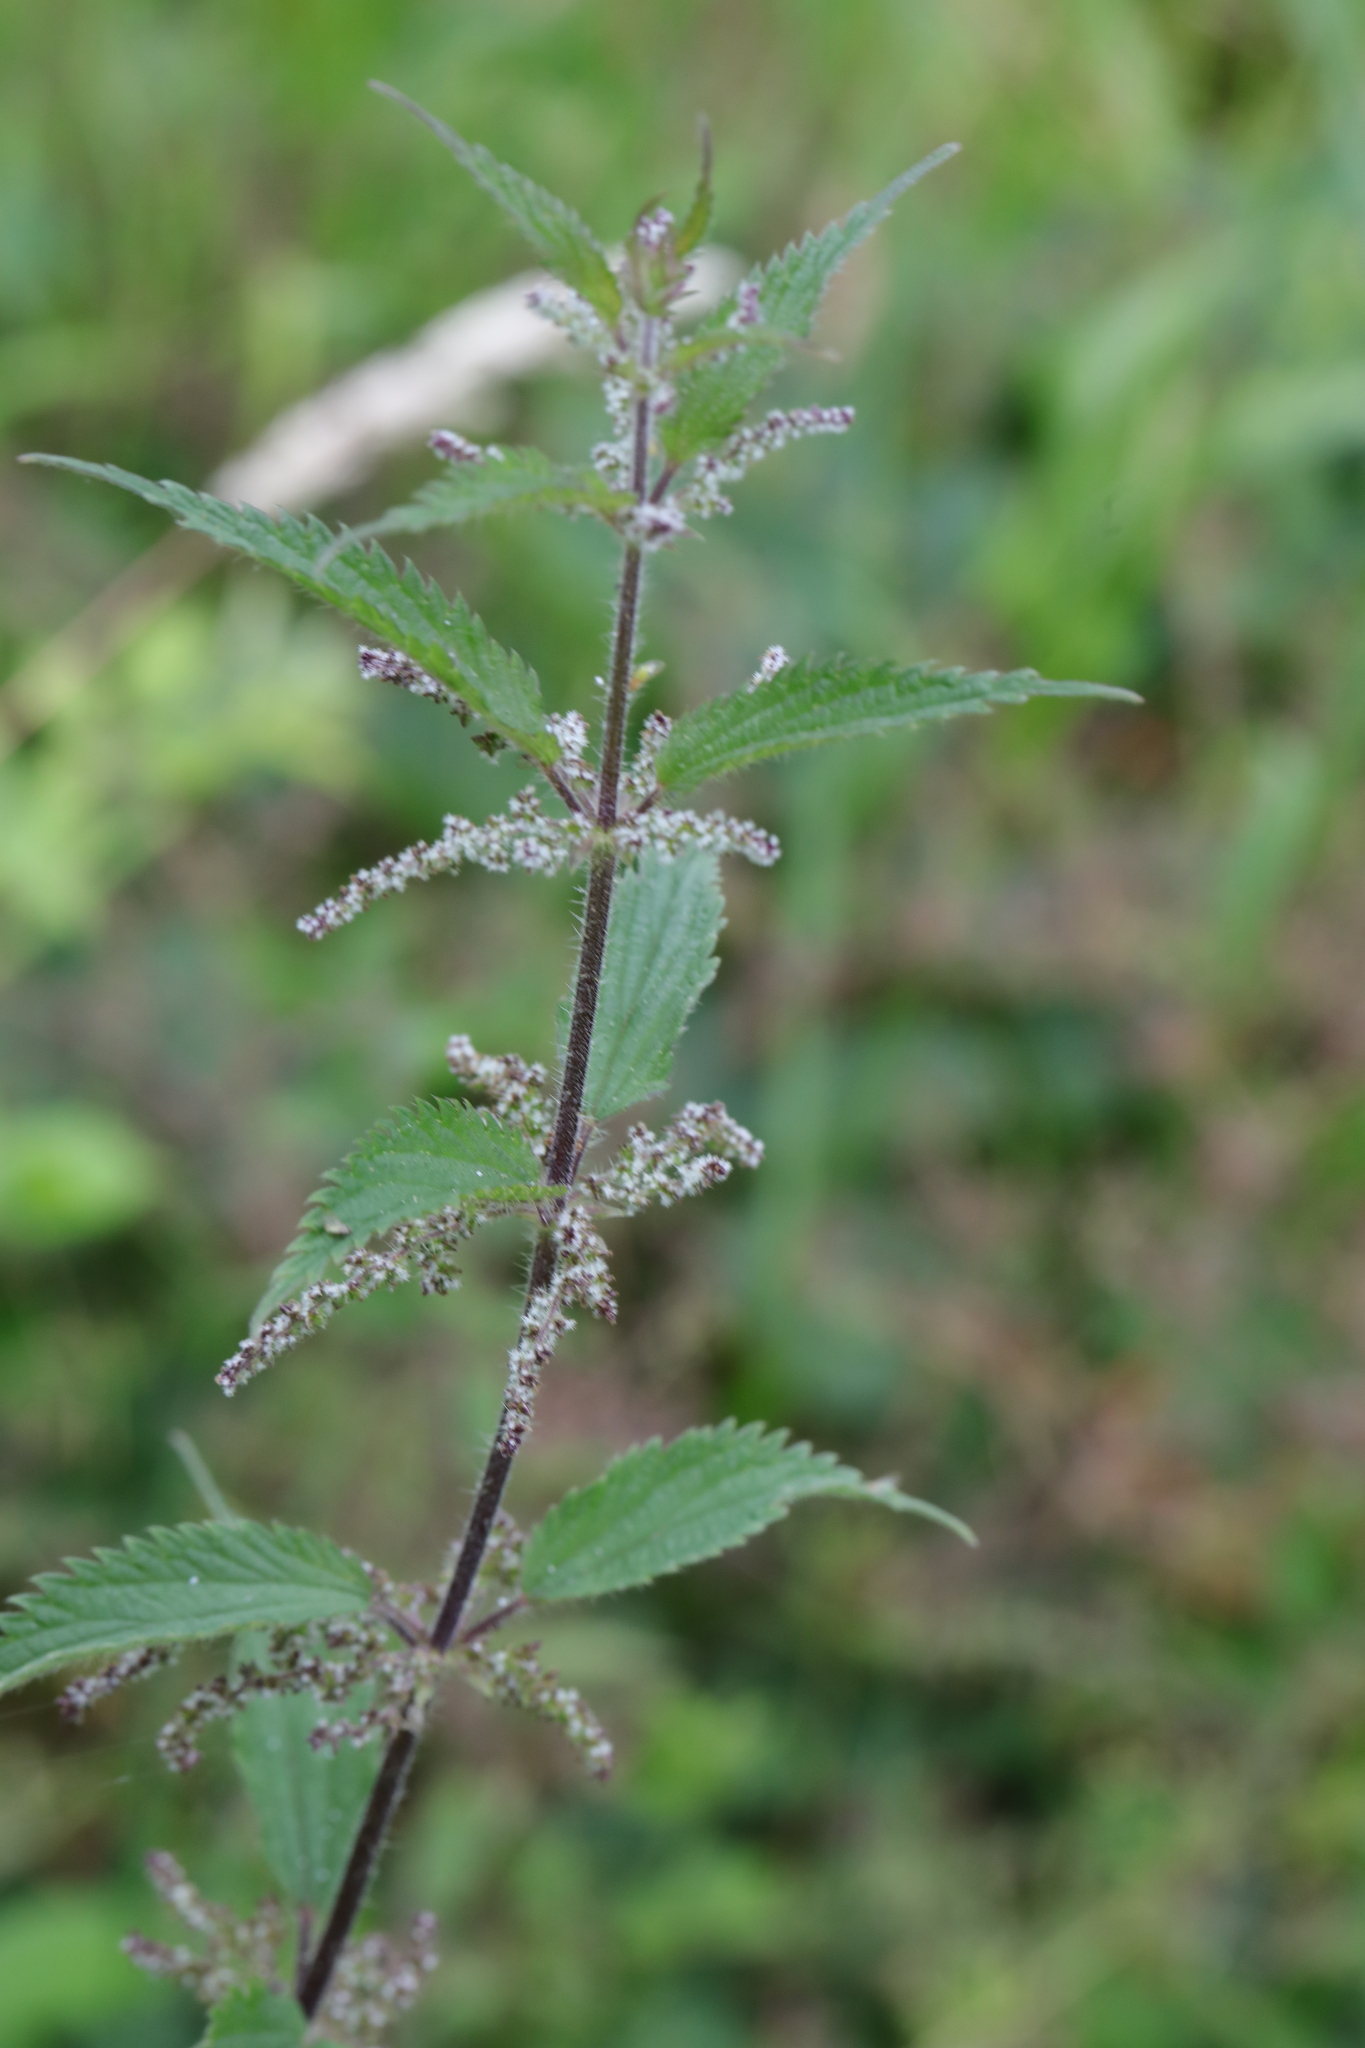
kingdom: Plantae
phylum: Tracheophyta
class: Magnoliopsida
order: Rosales
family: Urticaceae
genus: Urtica
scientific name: Urtica dioica
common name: Common nettle
